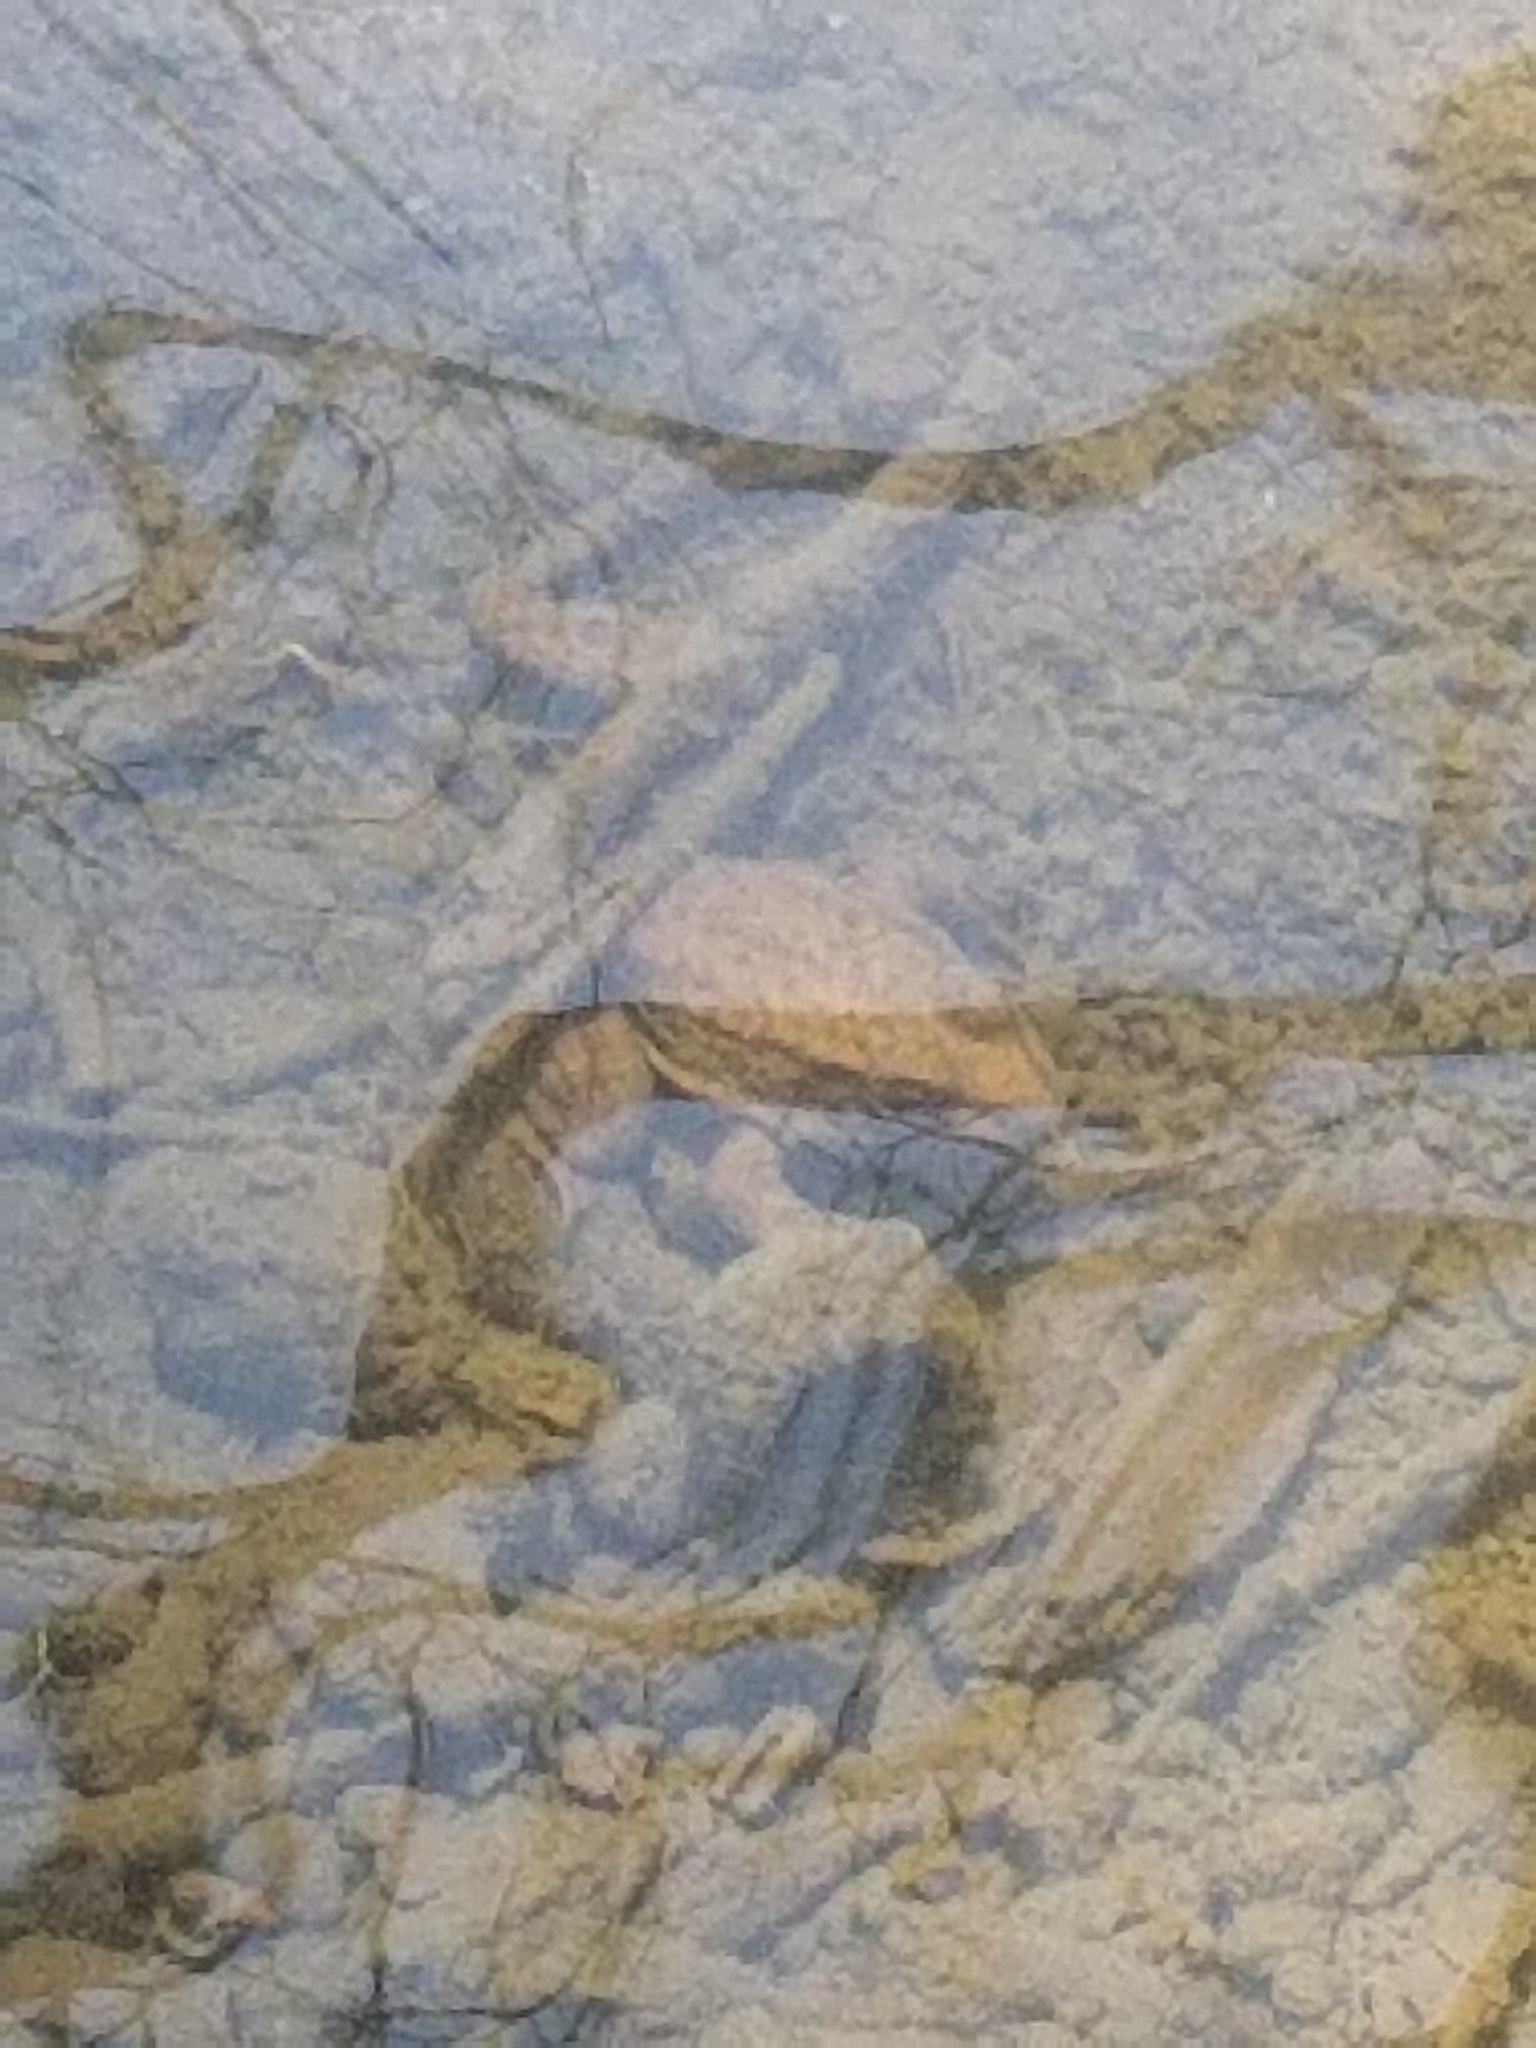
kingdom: Animalia
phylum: Chordata
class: Amphibia
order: Anura
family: Ranidae
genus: Lithobates
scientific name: Lithobates clamitans
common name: Green frog
